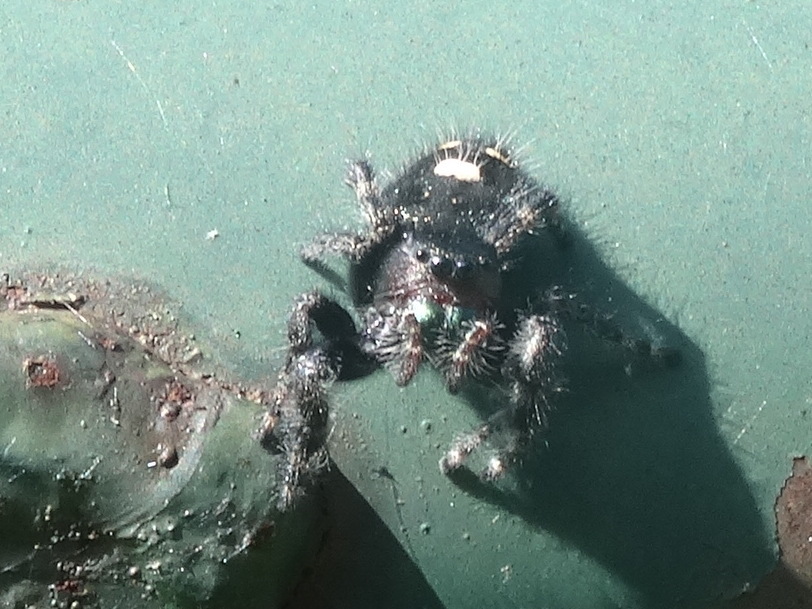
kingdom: Animalia
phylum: Arthropoda
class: Arachnida
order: Araneae
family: Salticidae
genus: Phidippus
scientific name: Phidippus audax
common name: Bold jumper
